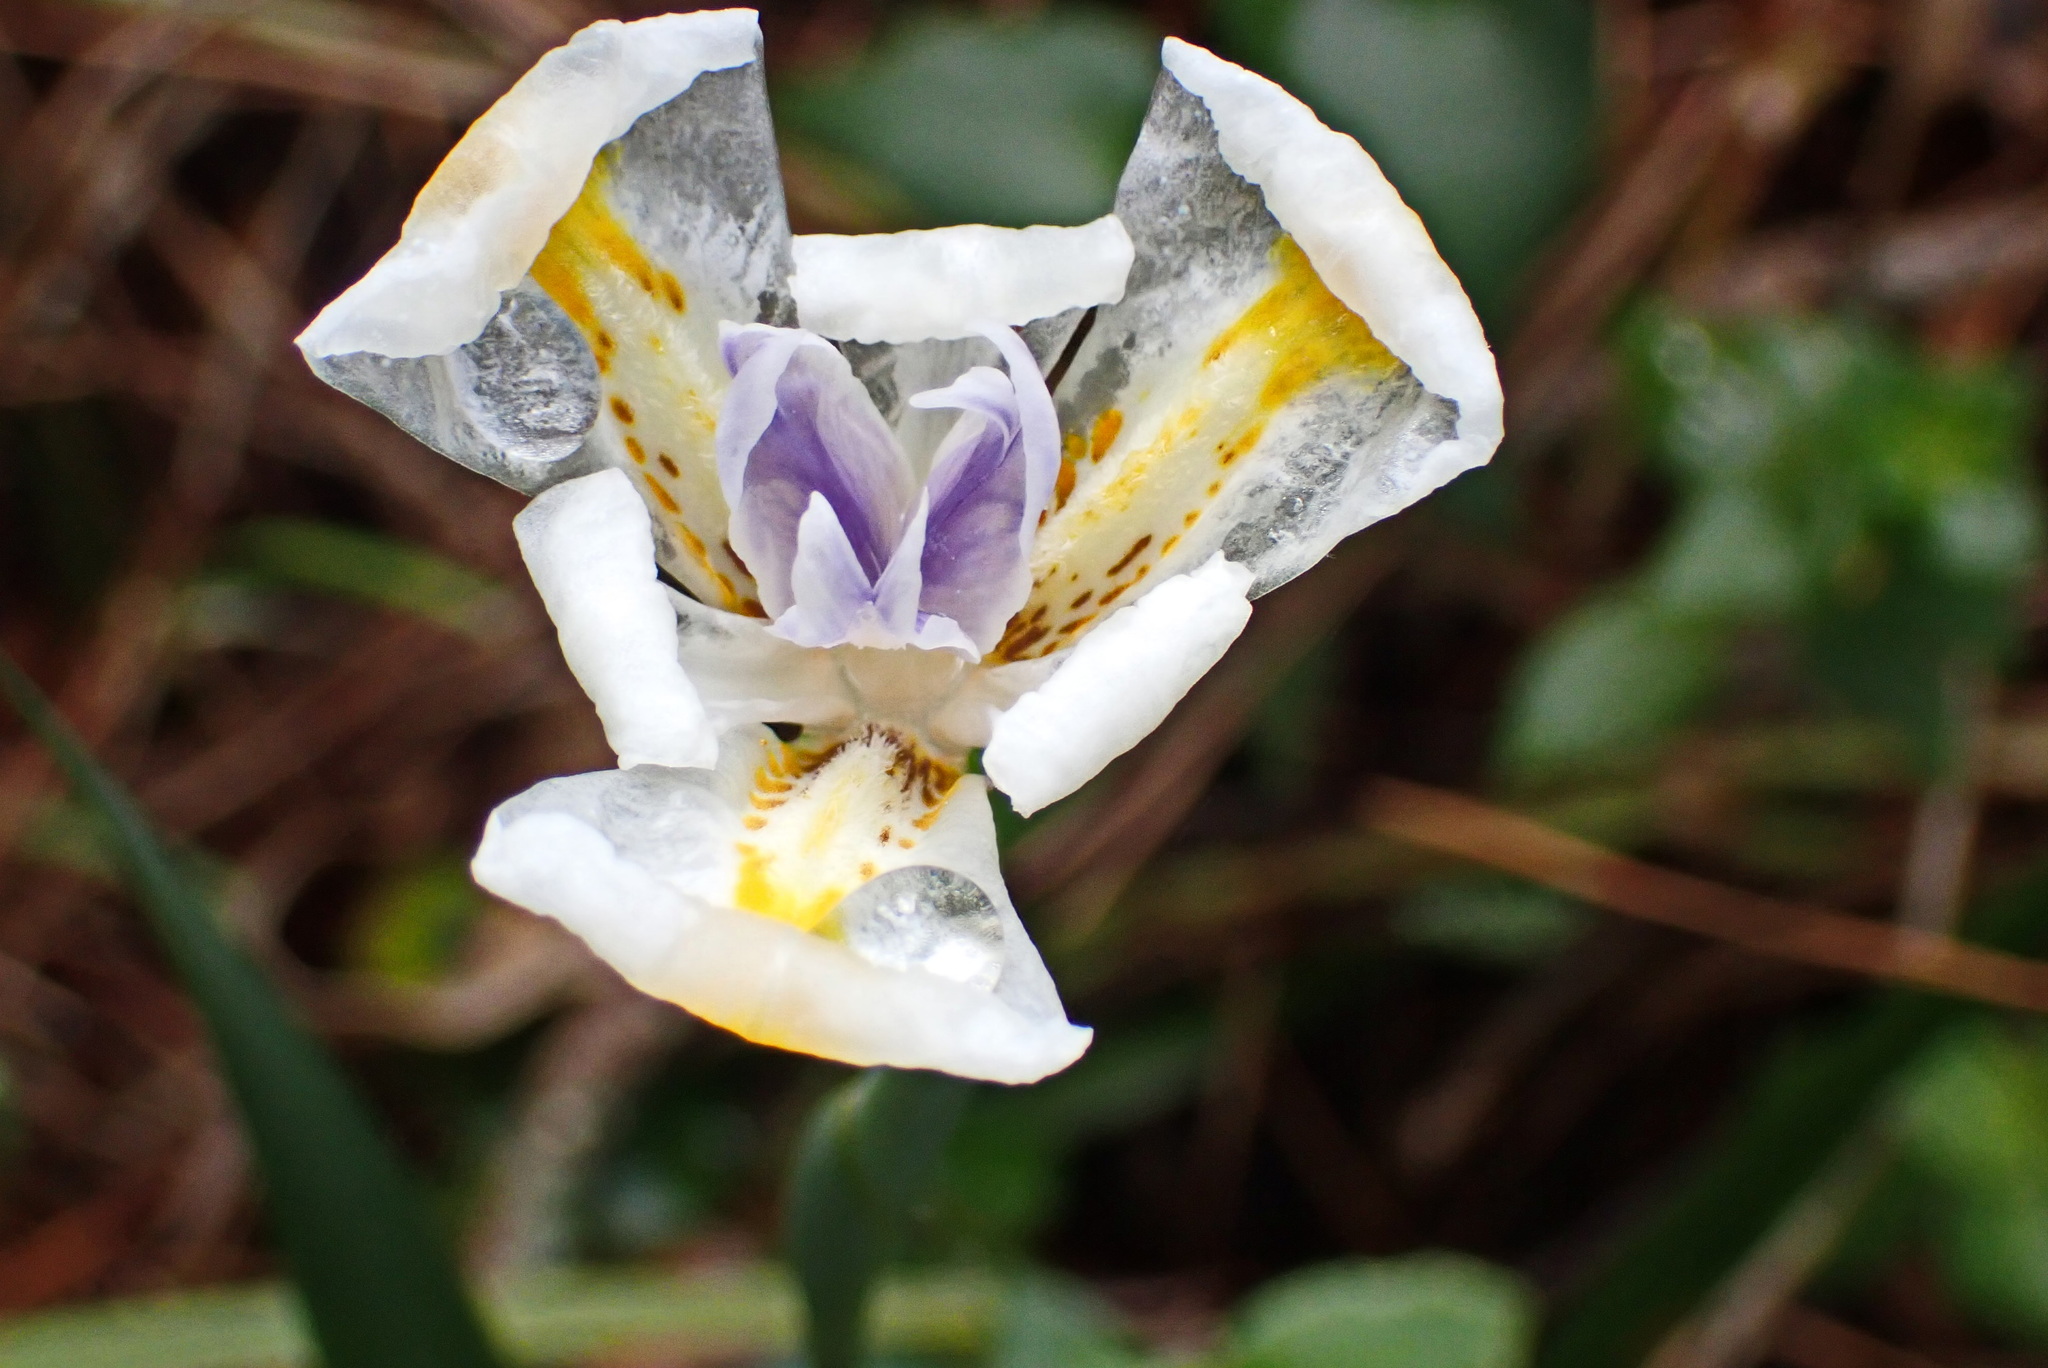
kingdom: Plantae
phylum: Tracheophyta
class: Liliopsida
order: Asparagales
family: Iridaceae
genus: Dietes
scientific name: Dietes iridioides
